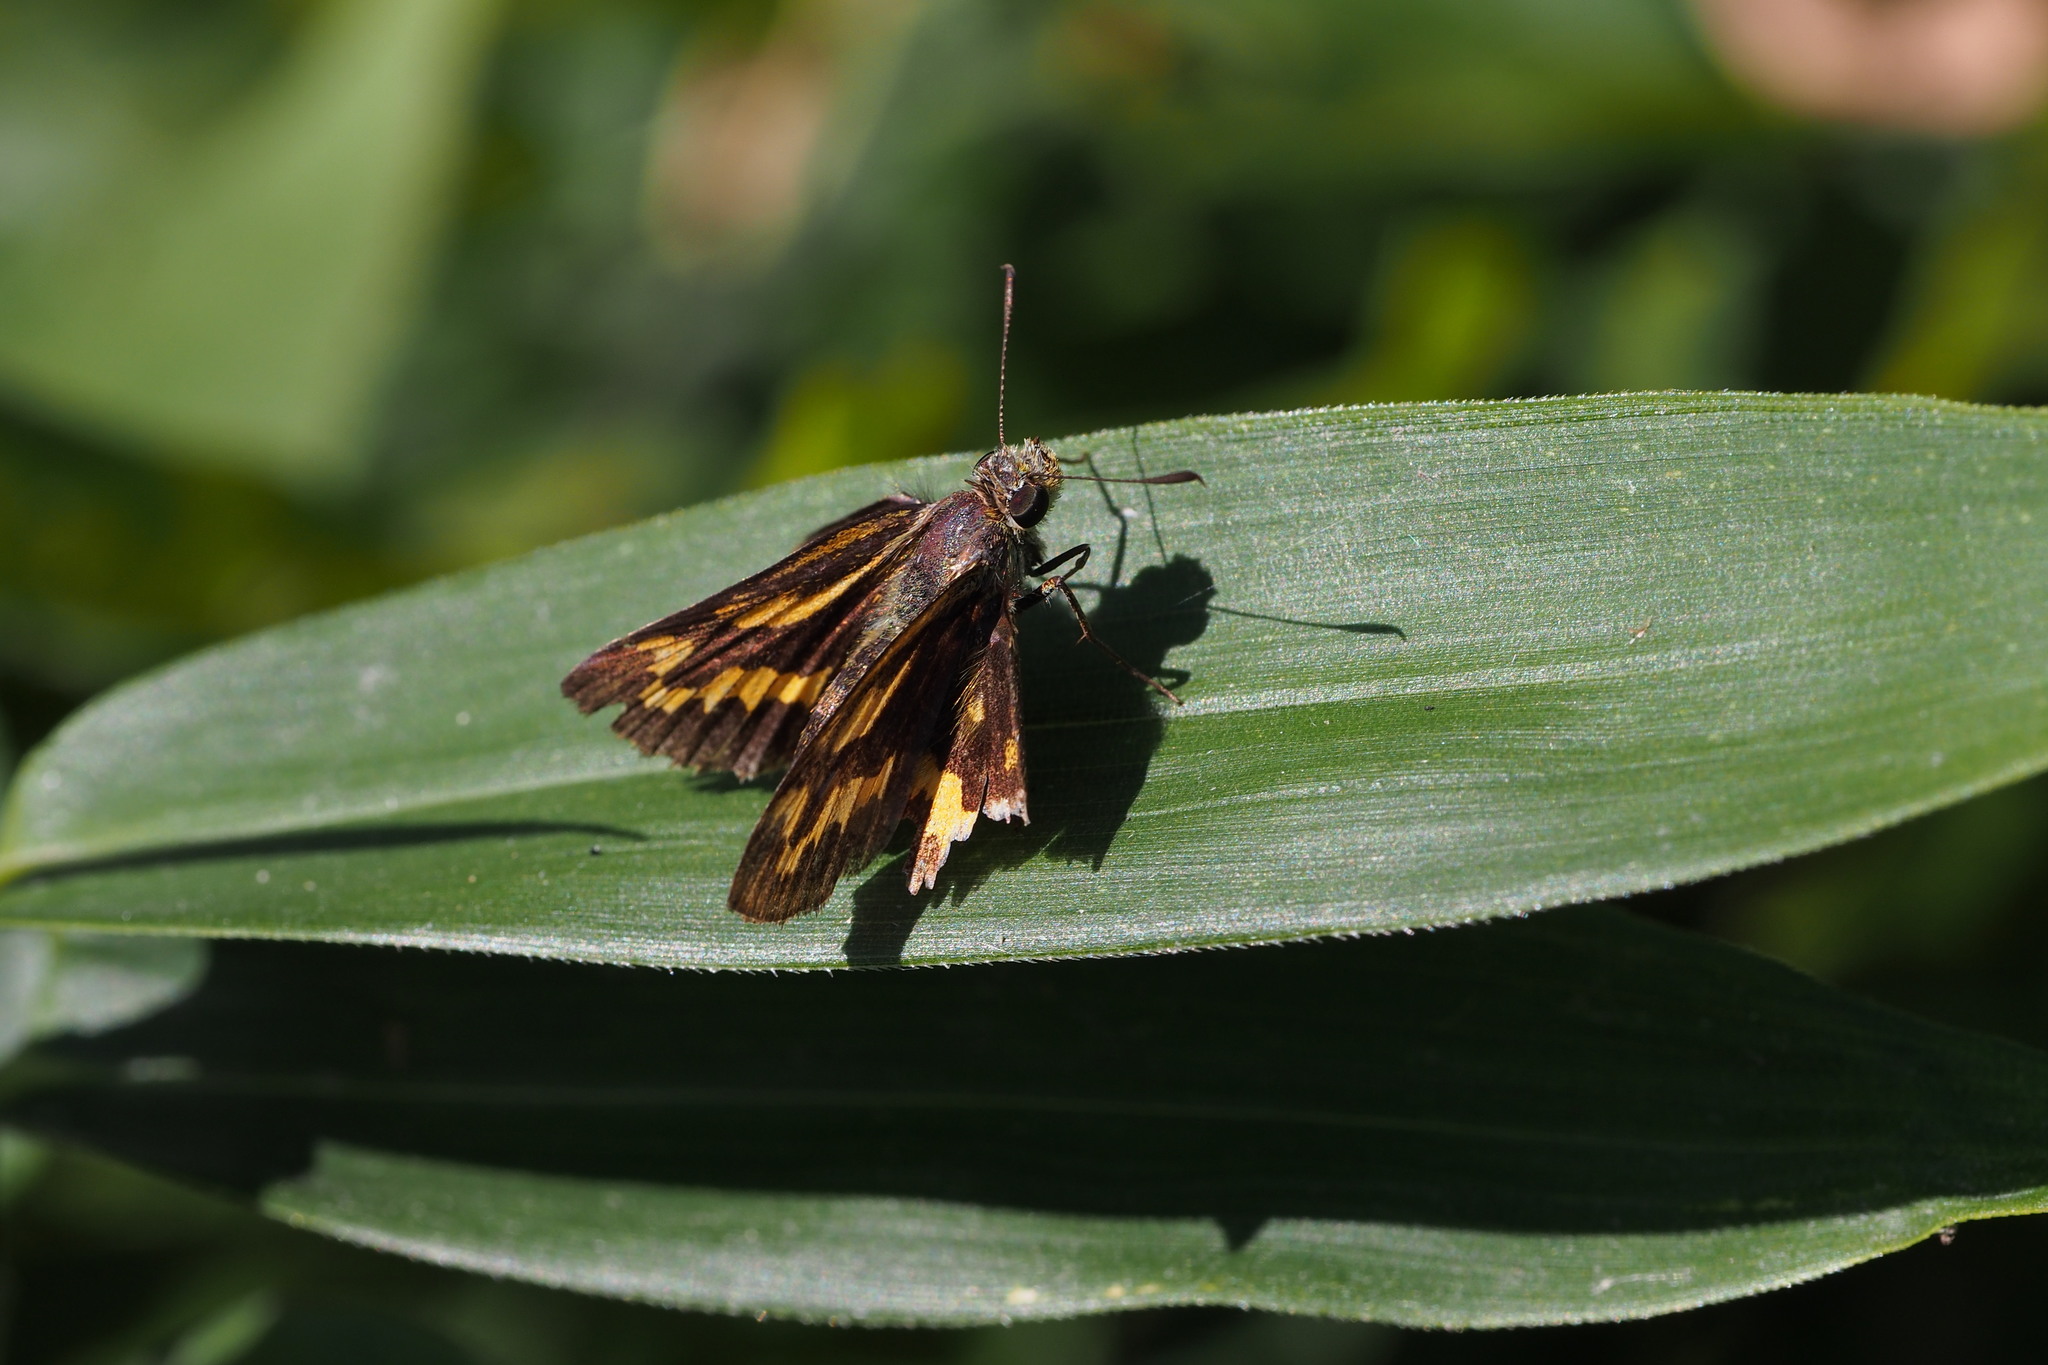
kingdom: Animalia
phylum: Arthropoda
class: Insecta
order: Lepidoptera
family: Hesperiidae
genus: Potanthus
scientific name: Potanthus flava
